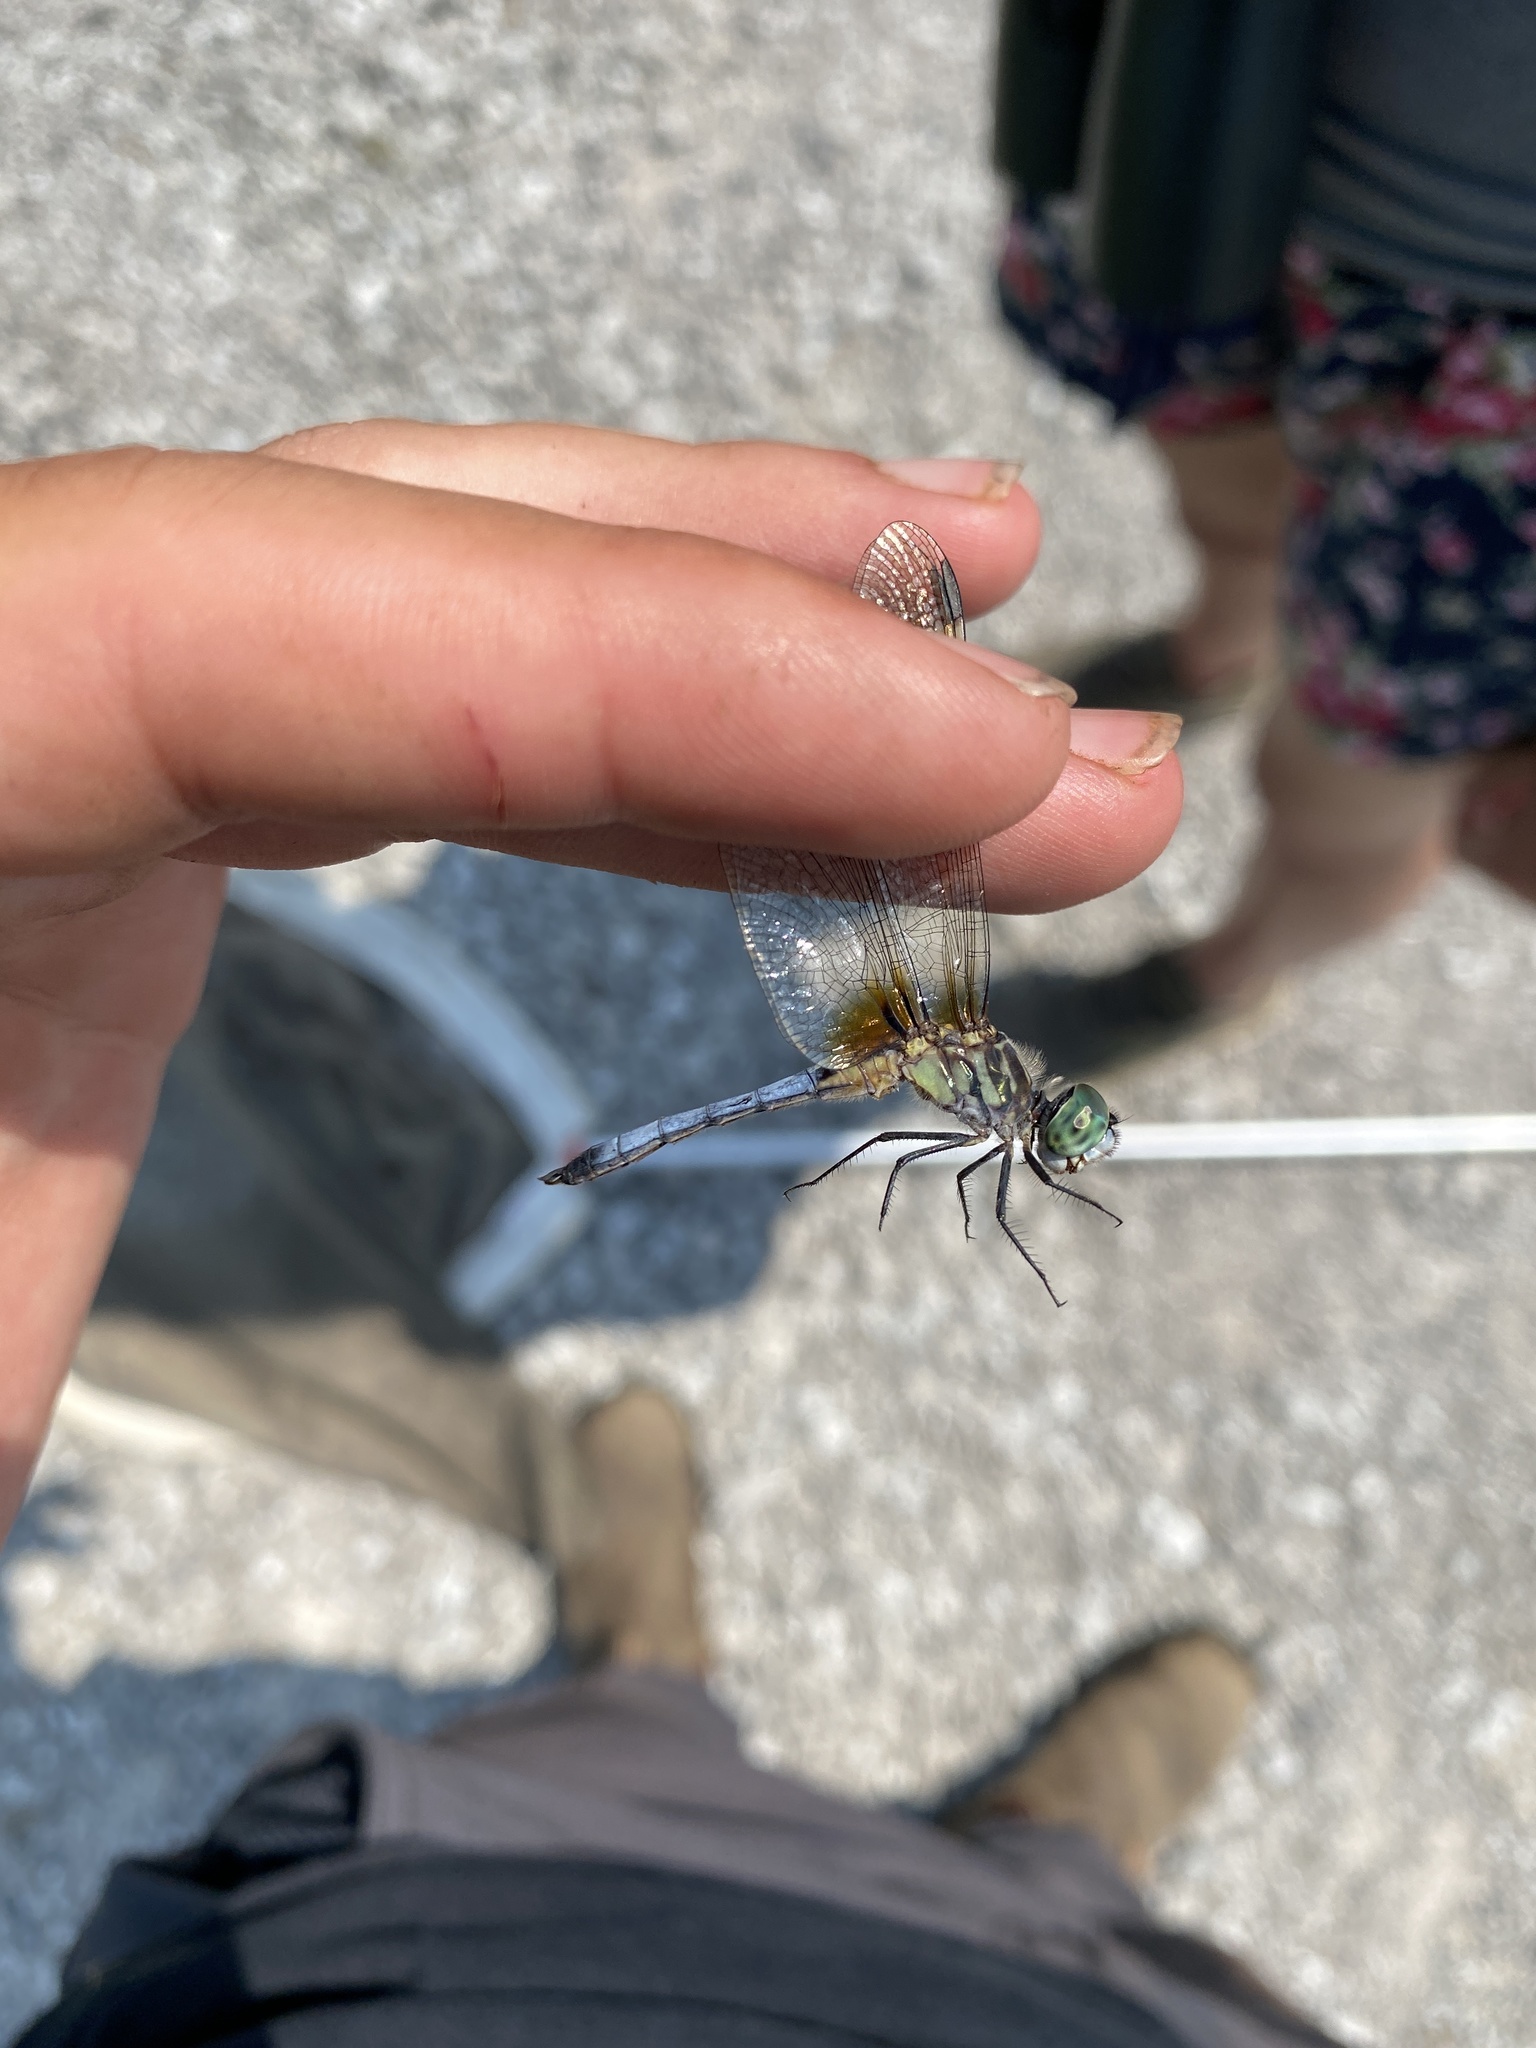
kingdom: Animalia
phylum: Arthropoda
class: Insecta
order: Odonata
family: Libellulidae
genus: Pachydiplax
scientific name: Pachydiplax longipennis
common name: Blue dasher
